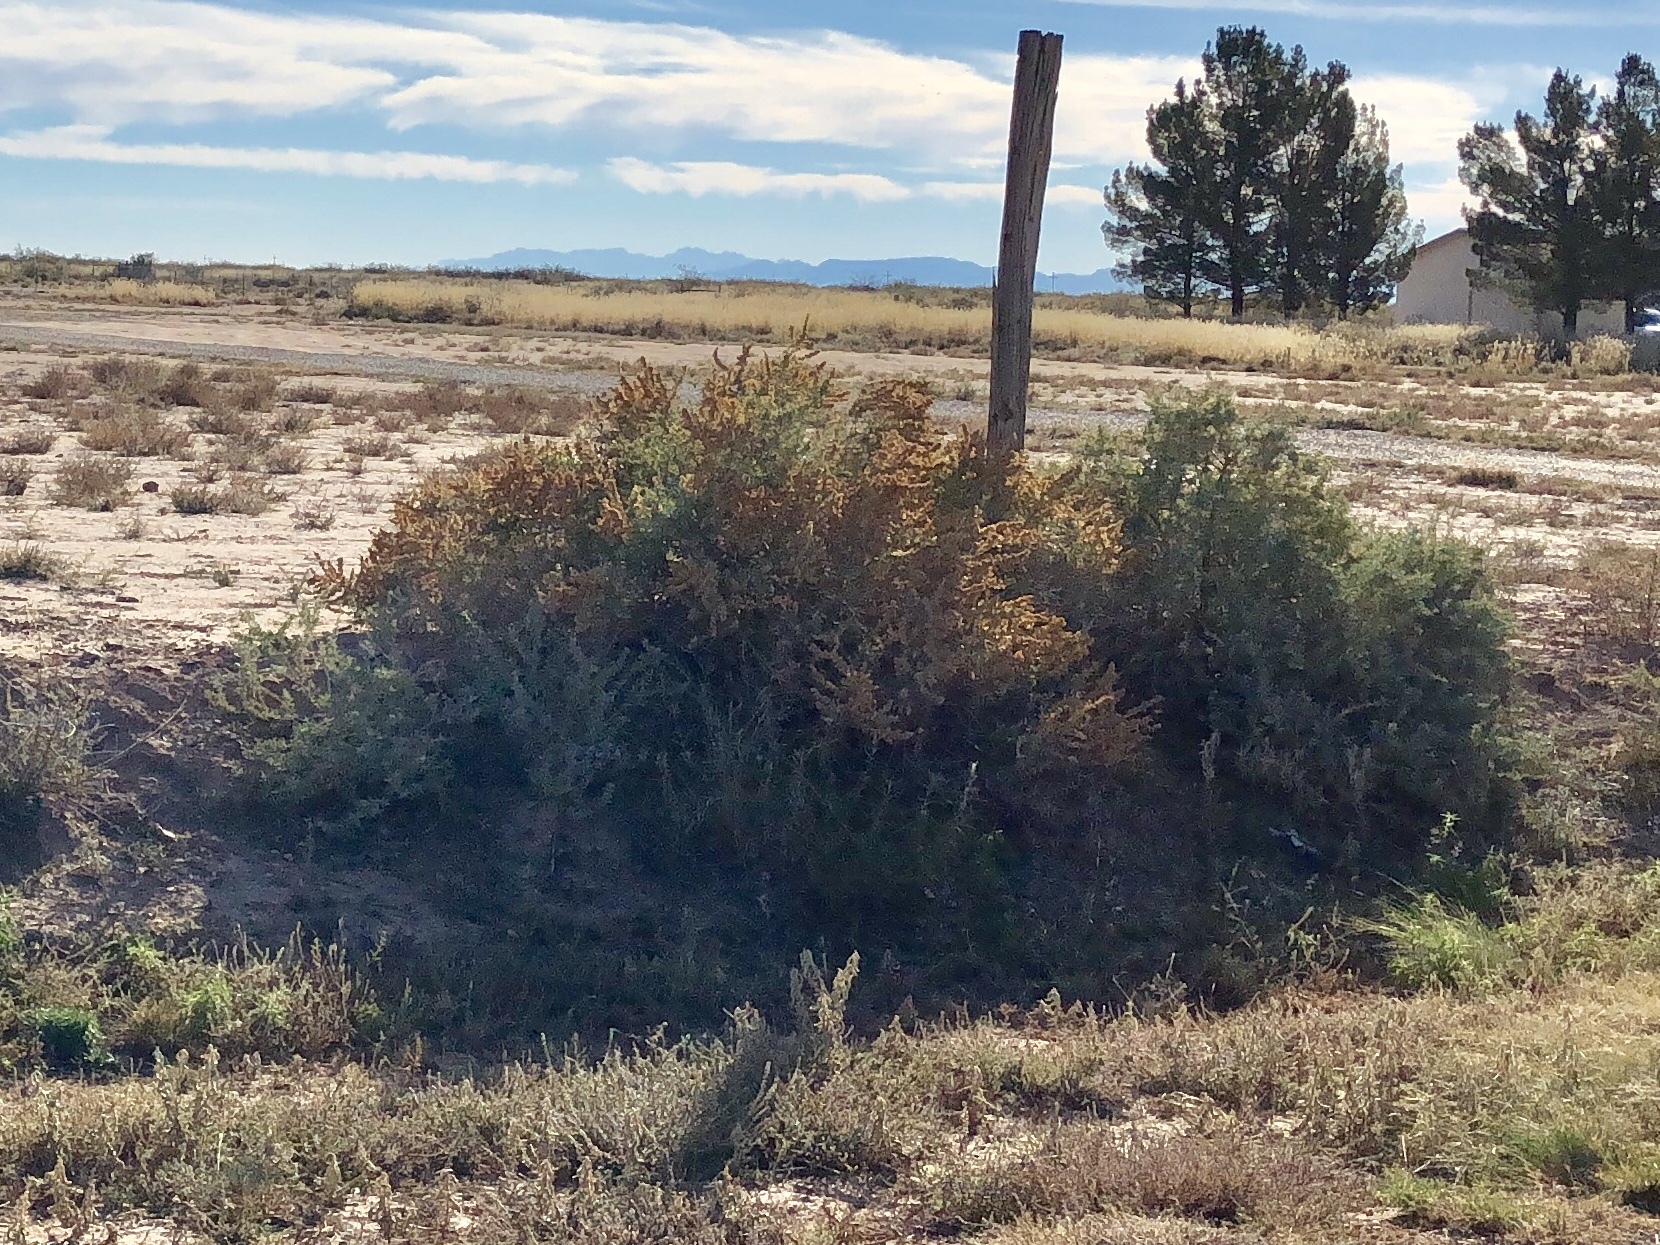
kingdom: Plantae
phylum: Tracheophyta
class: Magnoliopsida
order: Caryophyllales
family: Amaranthaceae
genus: Atriplex
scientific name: Atriplex canescens
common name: Four-wing saltbush
